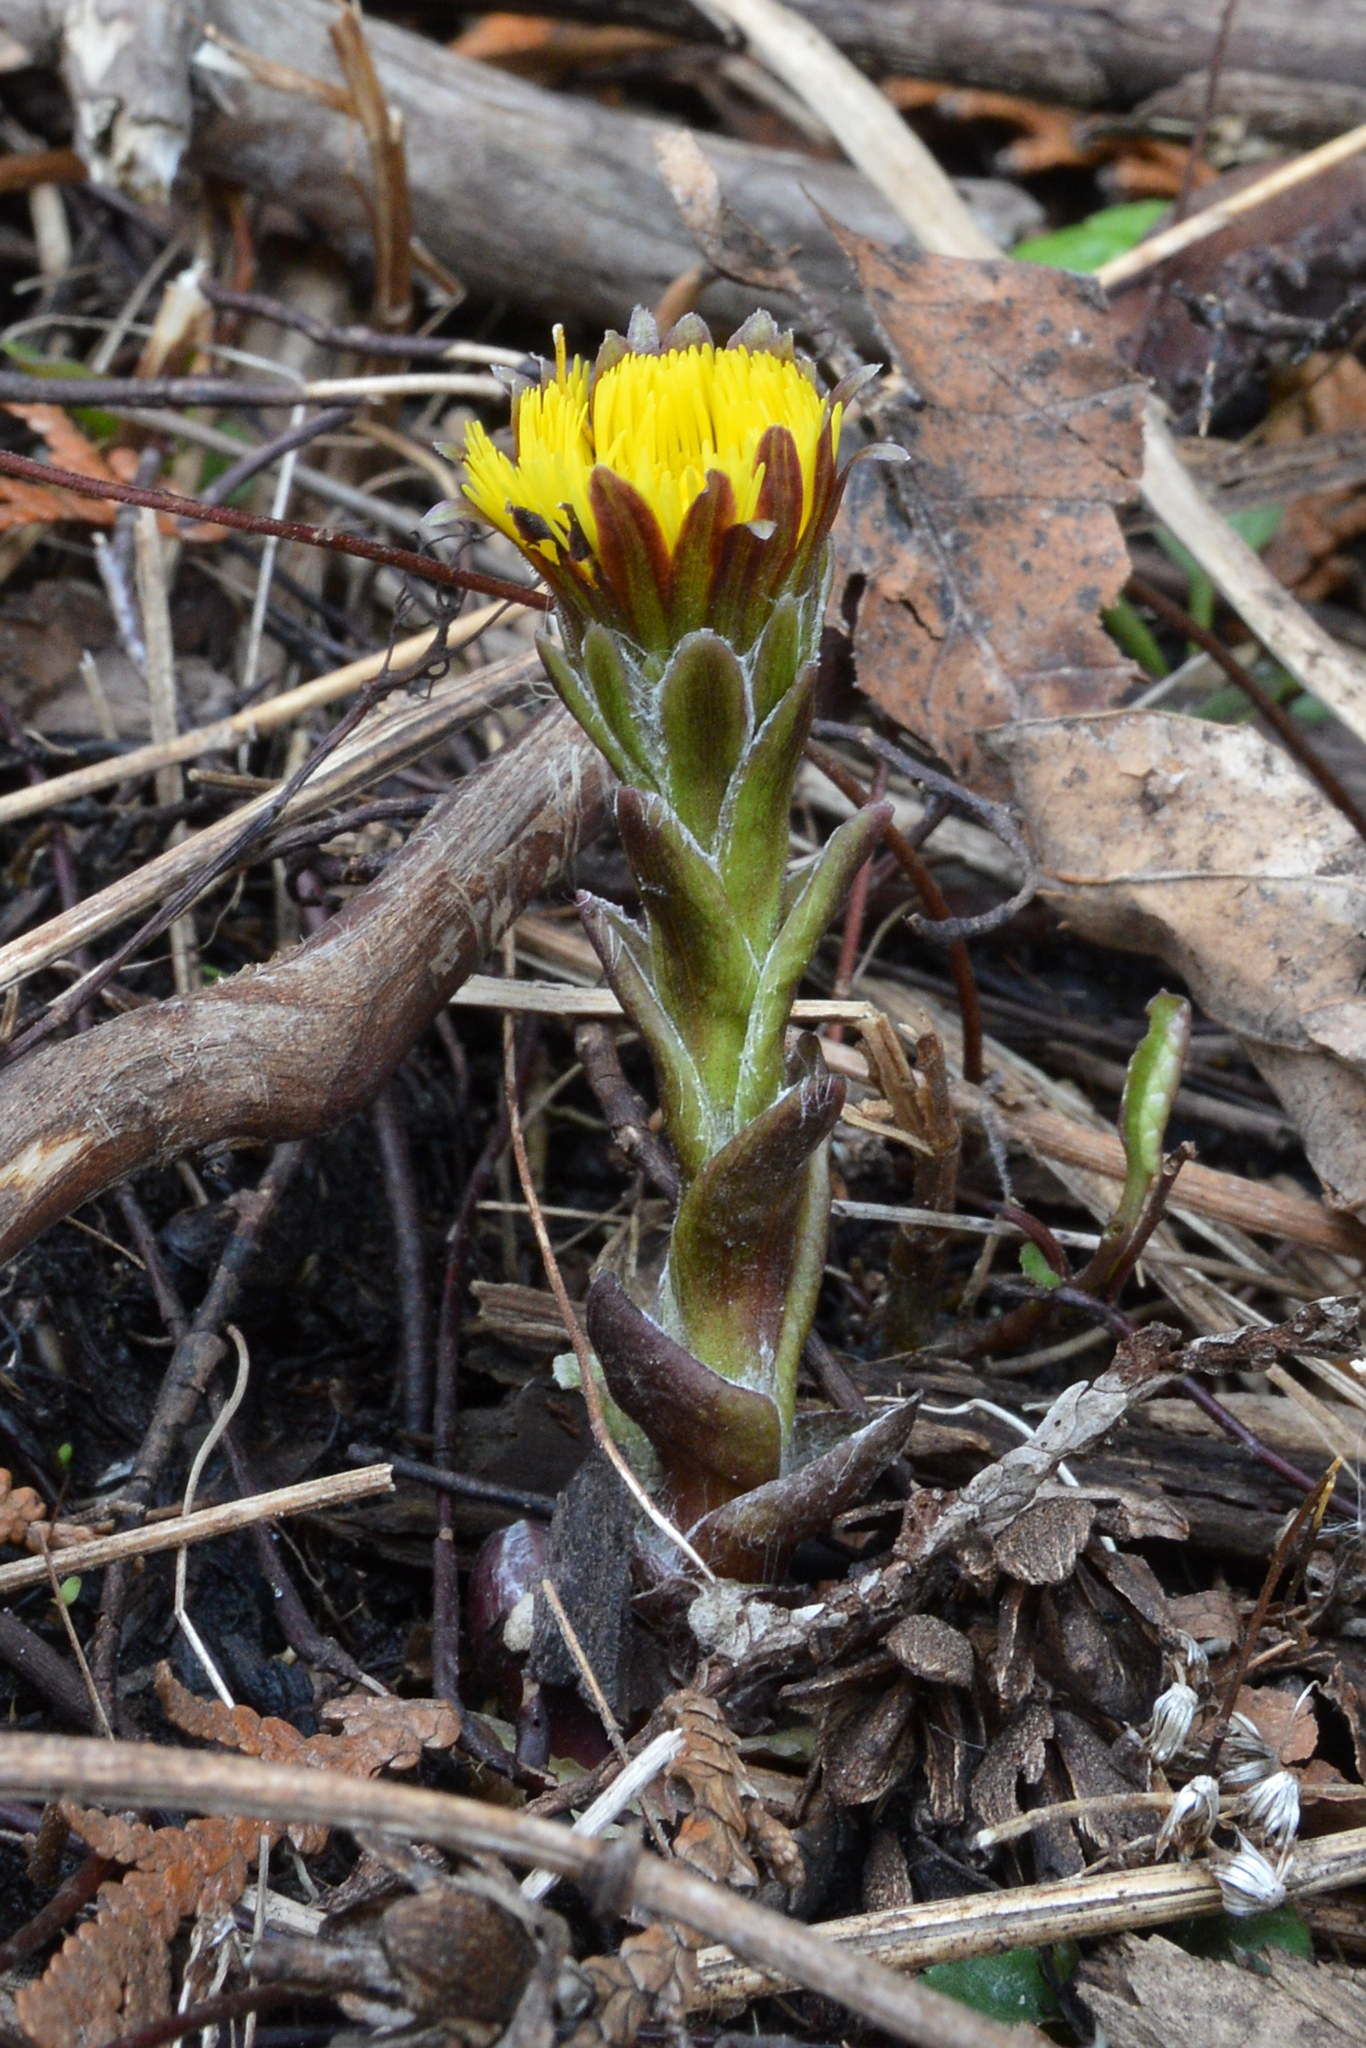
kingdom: Plantae
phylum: Tracheophyta
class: Magnoliopsida
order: Asterales
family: Asteraceae
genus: Tussilago
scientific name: Tussilago farfara
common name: Coltsfoot
